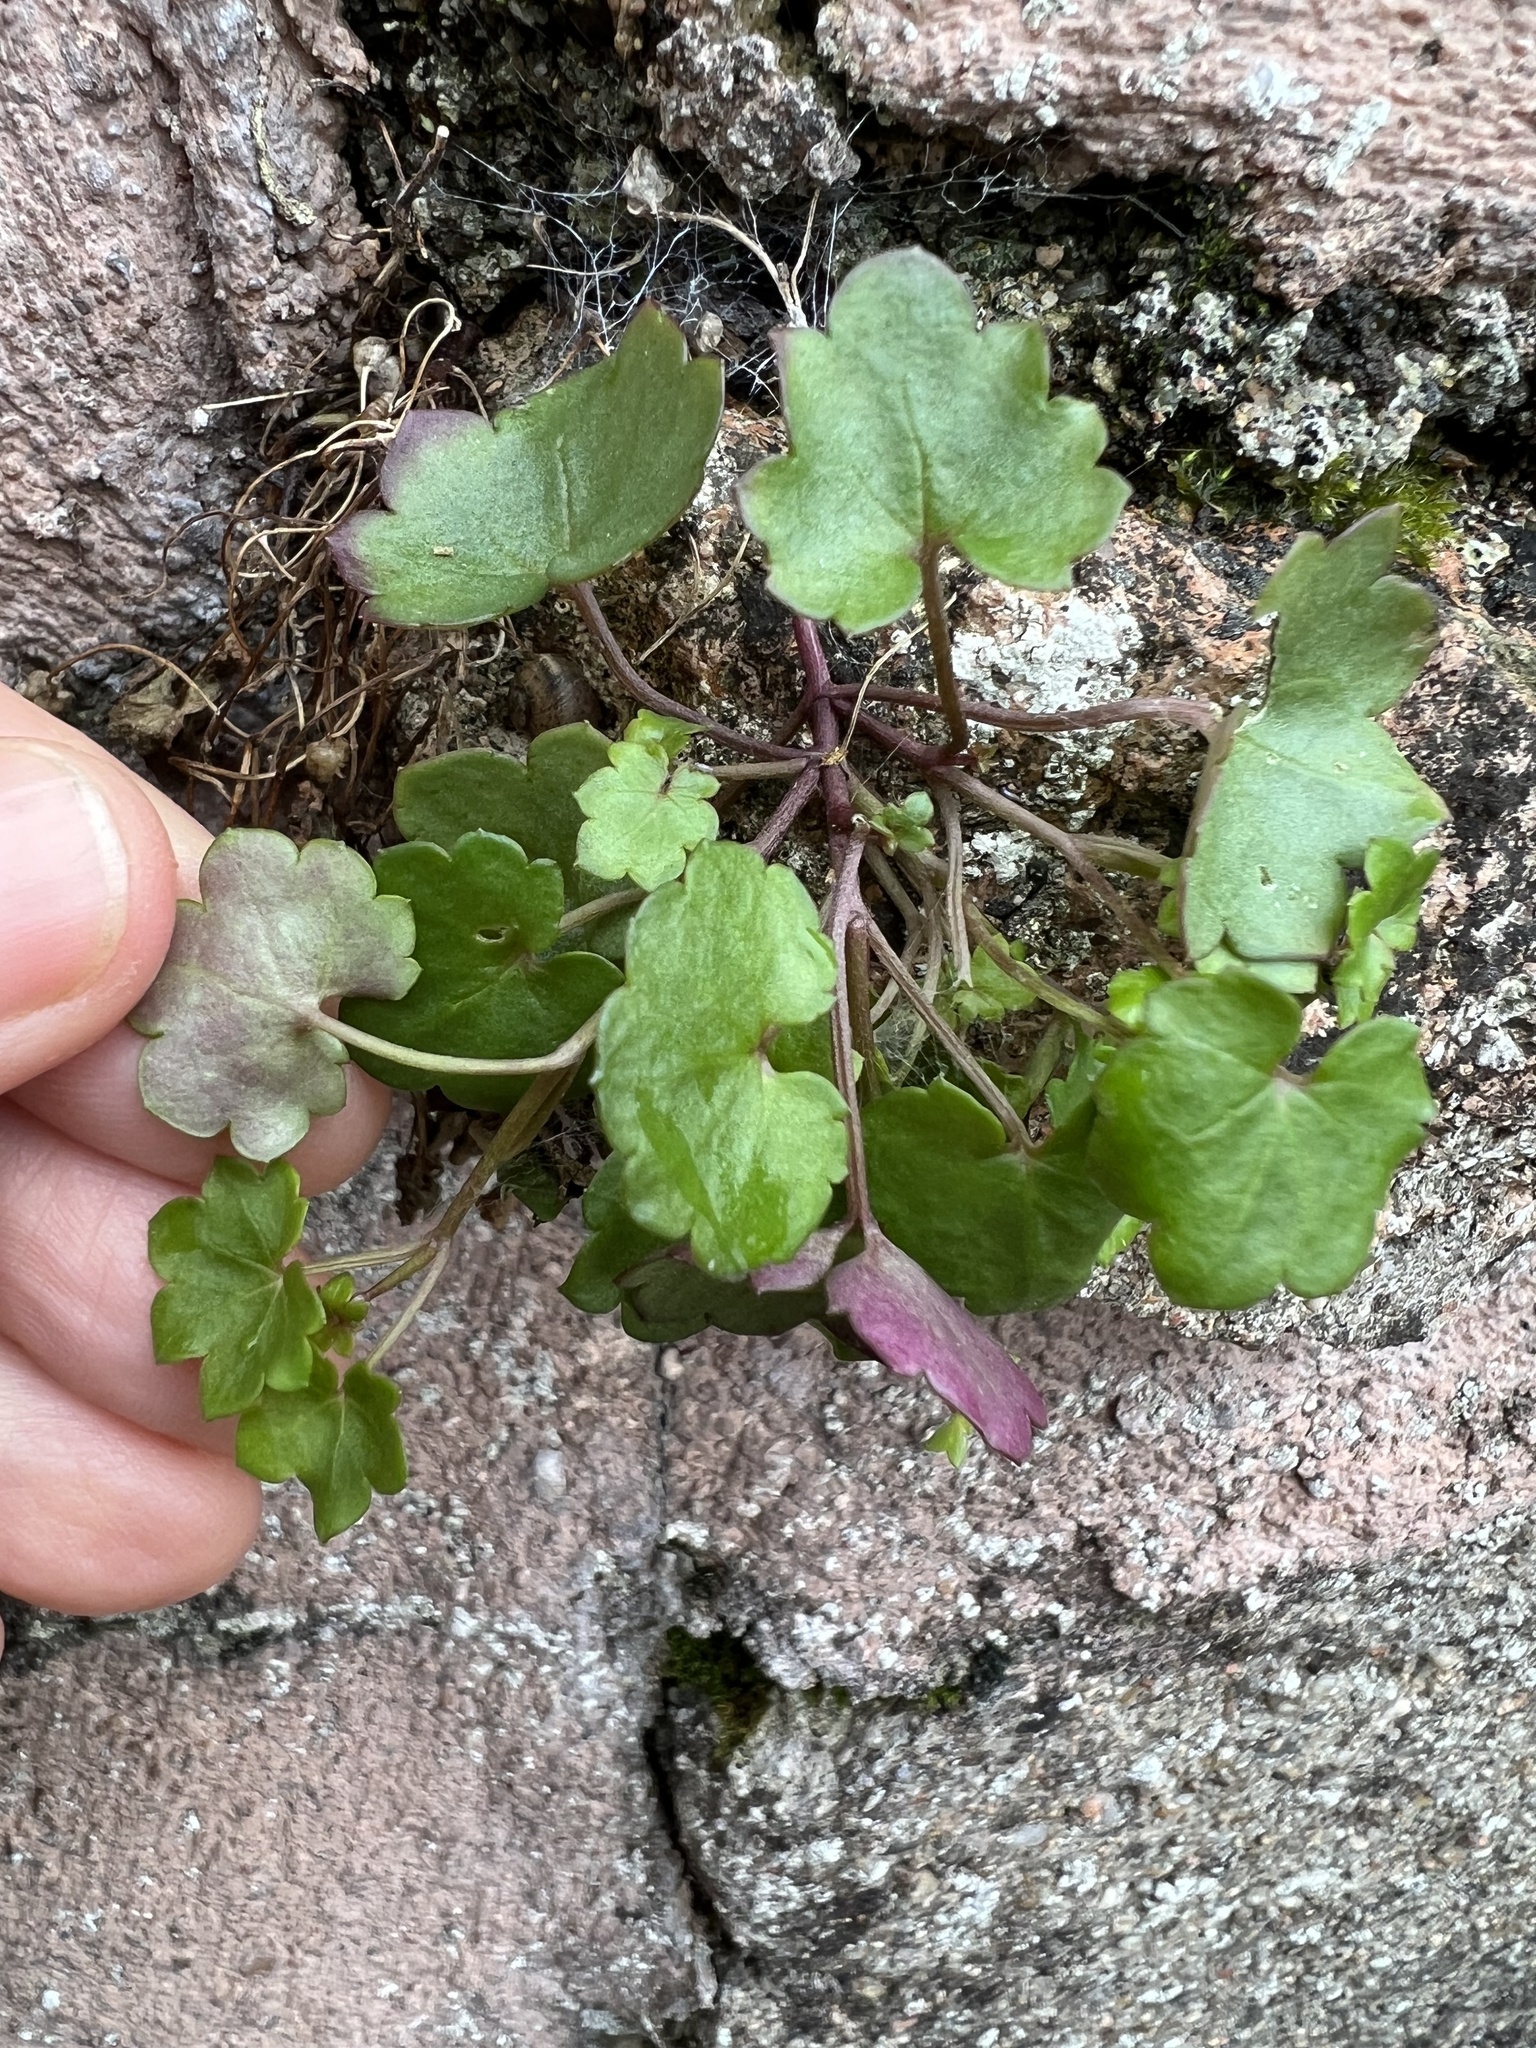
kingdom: Plantae
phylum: Tracheophyta
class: Magnoliopsida
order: Lamiales
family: Plantaginaceae
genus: Cymbalaria
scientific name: Cymbalaria muralis
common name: Ivy-leaved toadflax
